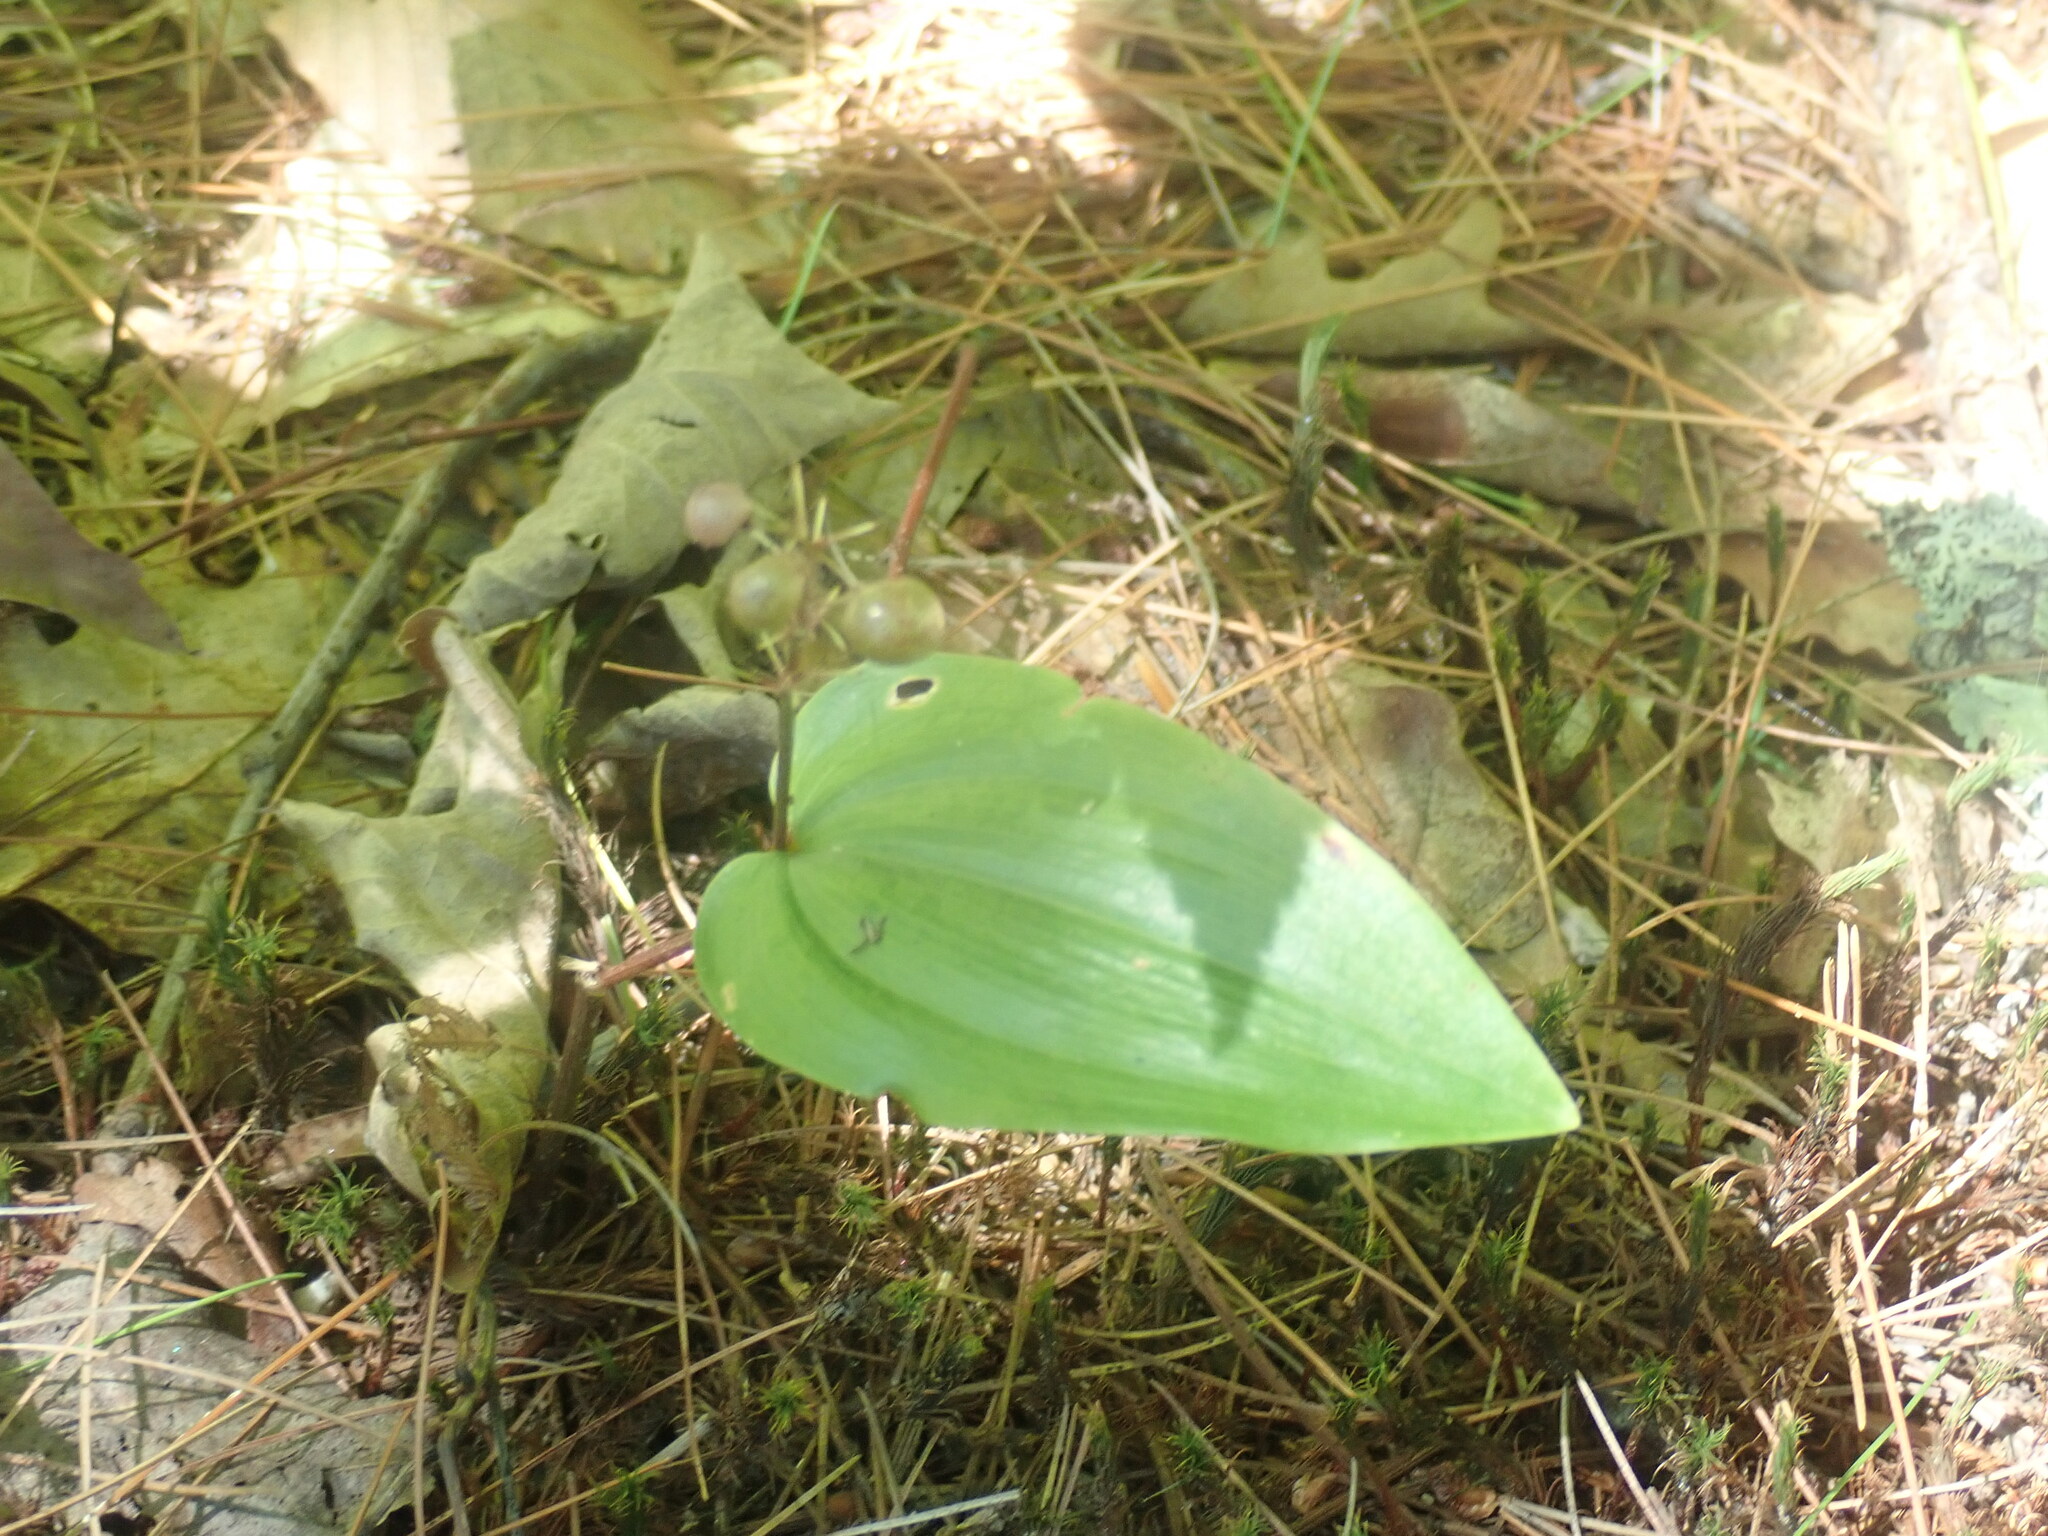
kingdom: Plantae
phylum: Tracheophyta
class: Liliopsida
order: Asparagales
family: Asparagaceae
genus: Maianthemum
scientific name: Maianthemum canadense
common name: False lily-of-the-valley
